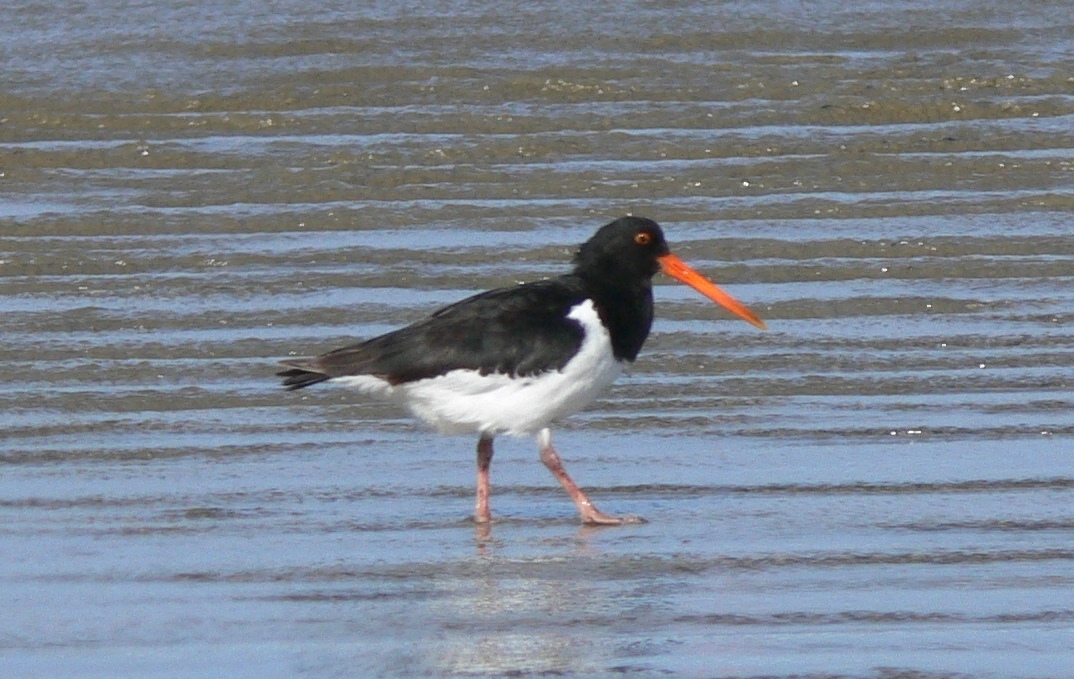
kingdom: Animalia
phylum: Chordata
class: Aves
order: Charadriiformes
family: Haematopodidae
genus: Haematopus
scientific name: Haematopus finschi
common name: South island oystercatcher
